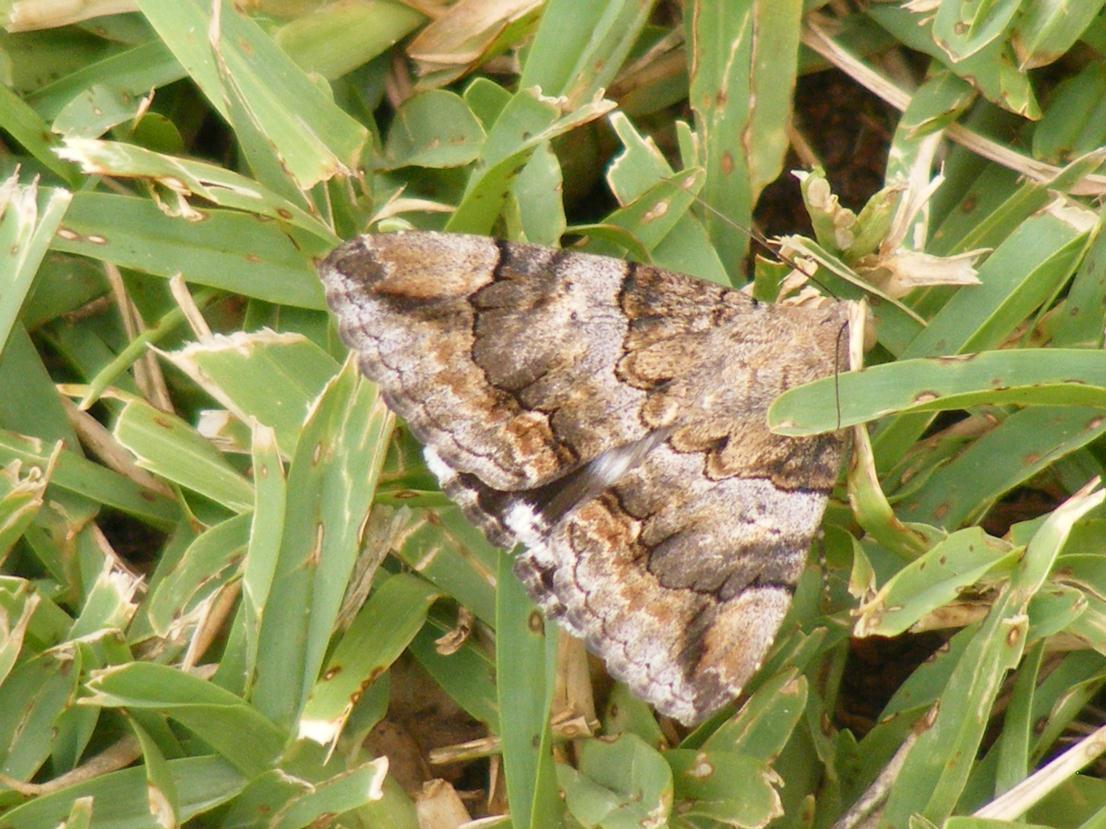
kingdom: Animalia
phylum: Arthropoda
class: Insecta
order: Lepidoptera
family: Erebidae
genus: Achaea
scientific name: Achaea catella
